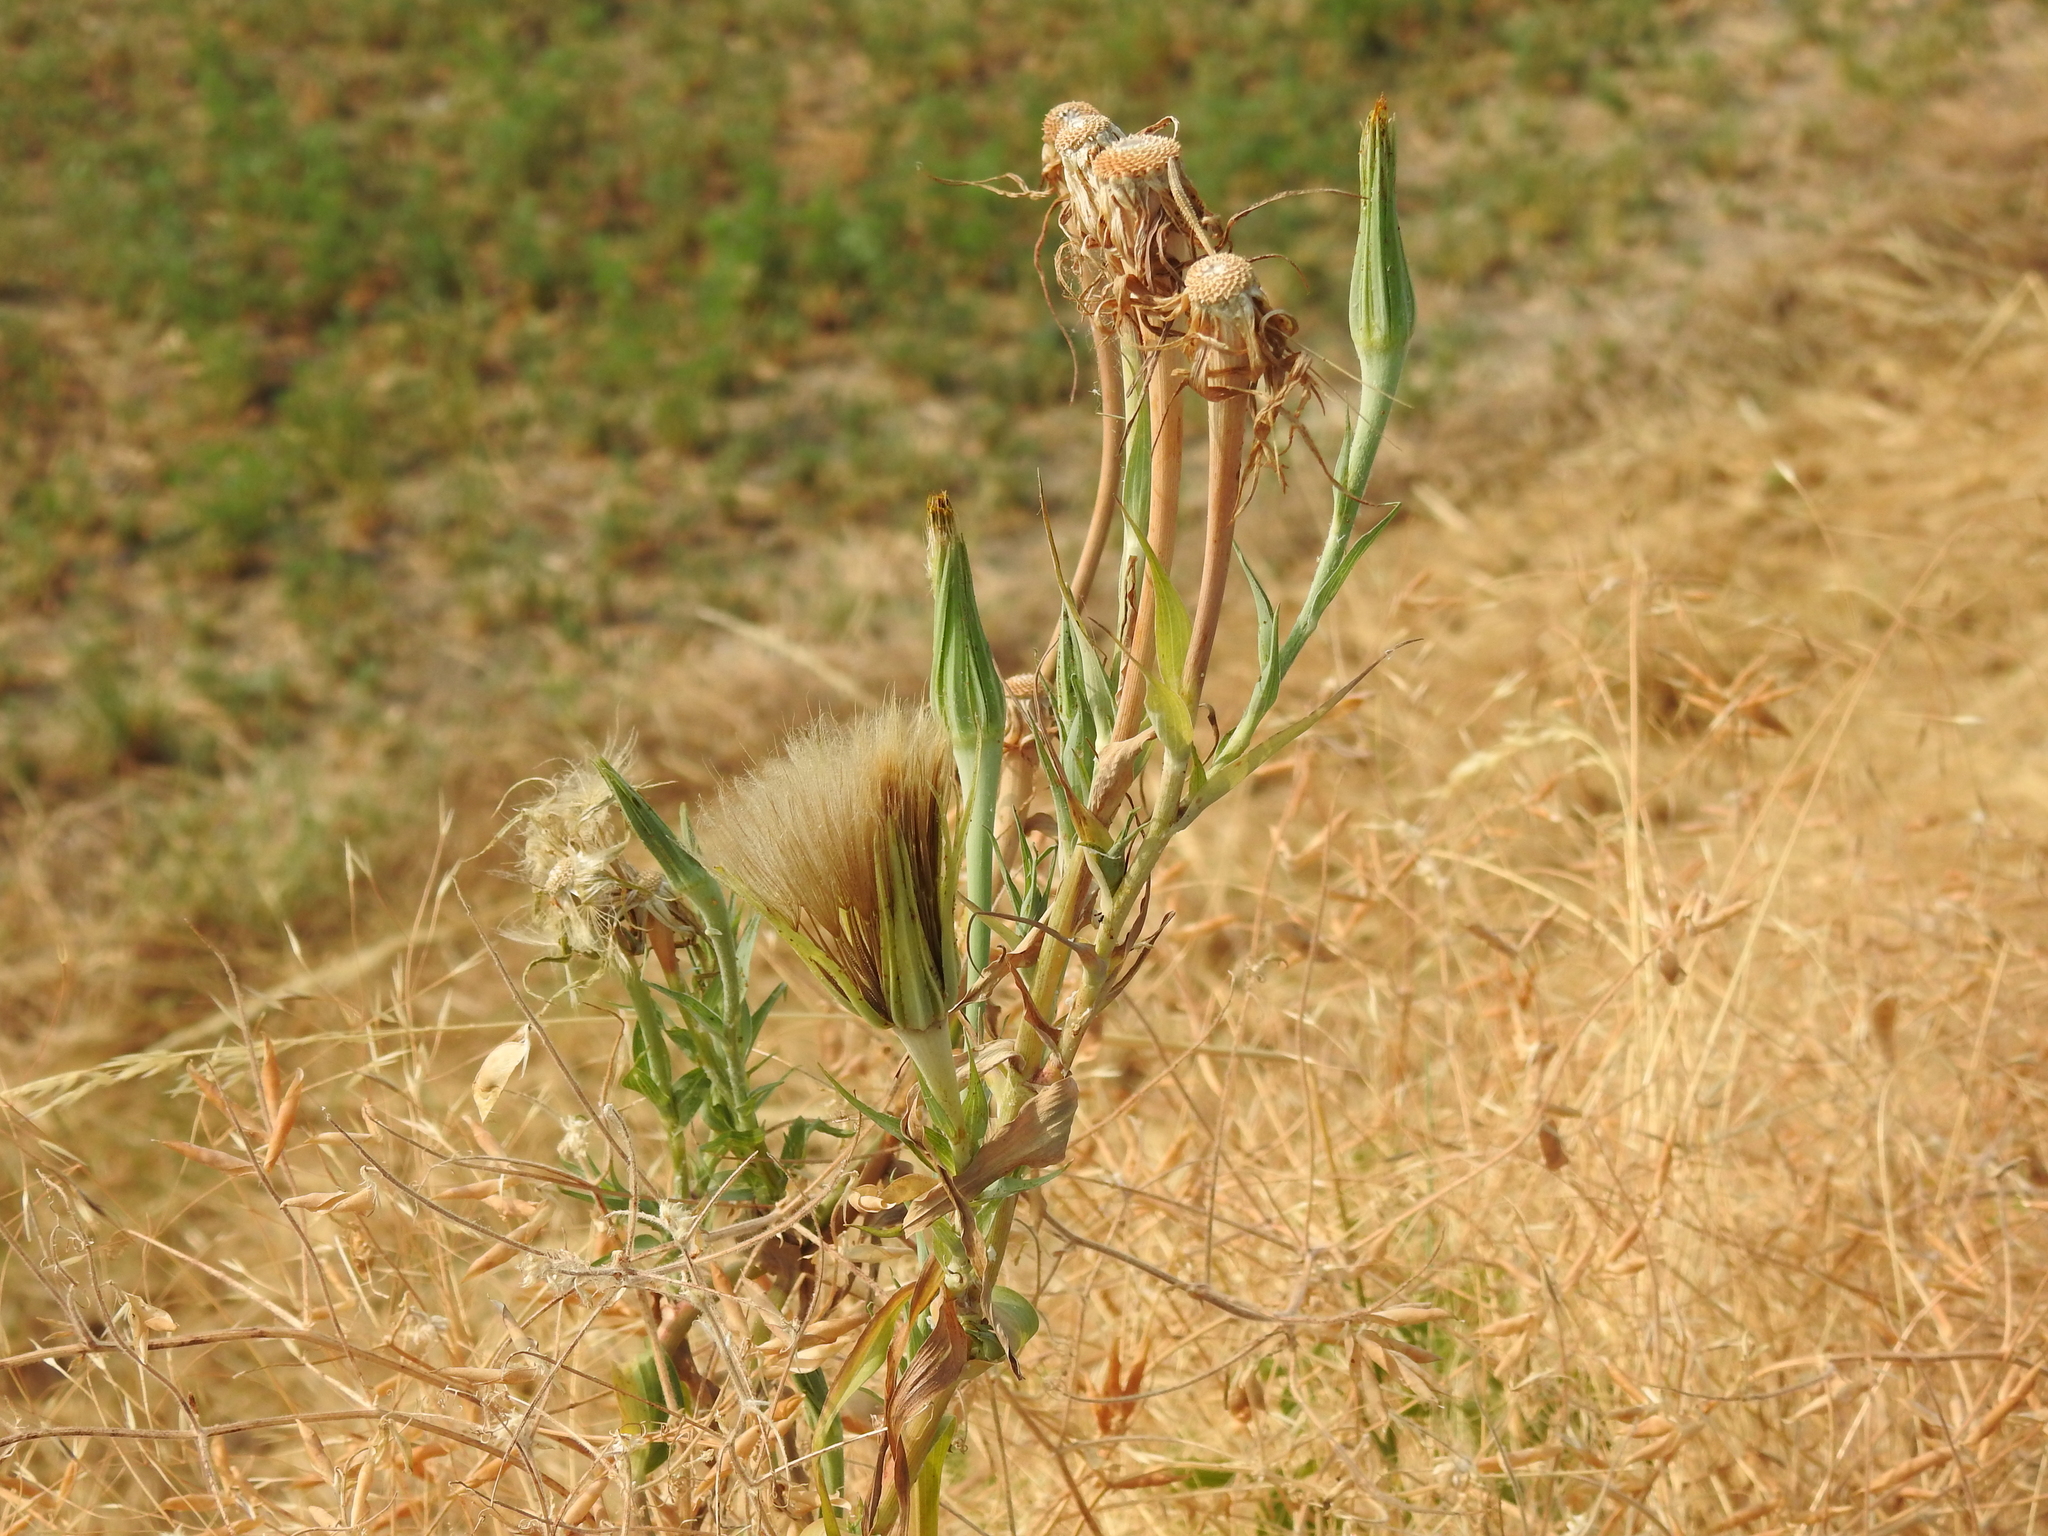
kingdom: Plantae
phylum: Tracheophyta
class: Magnoliopsida
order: Asterales
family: Asteraceae
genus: Tragopogon
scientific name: Tragopogon dubius
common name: Yellow salsify
